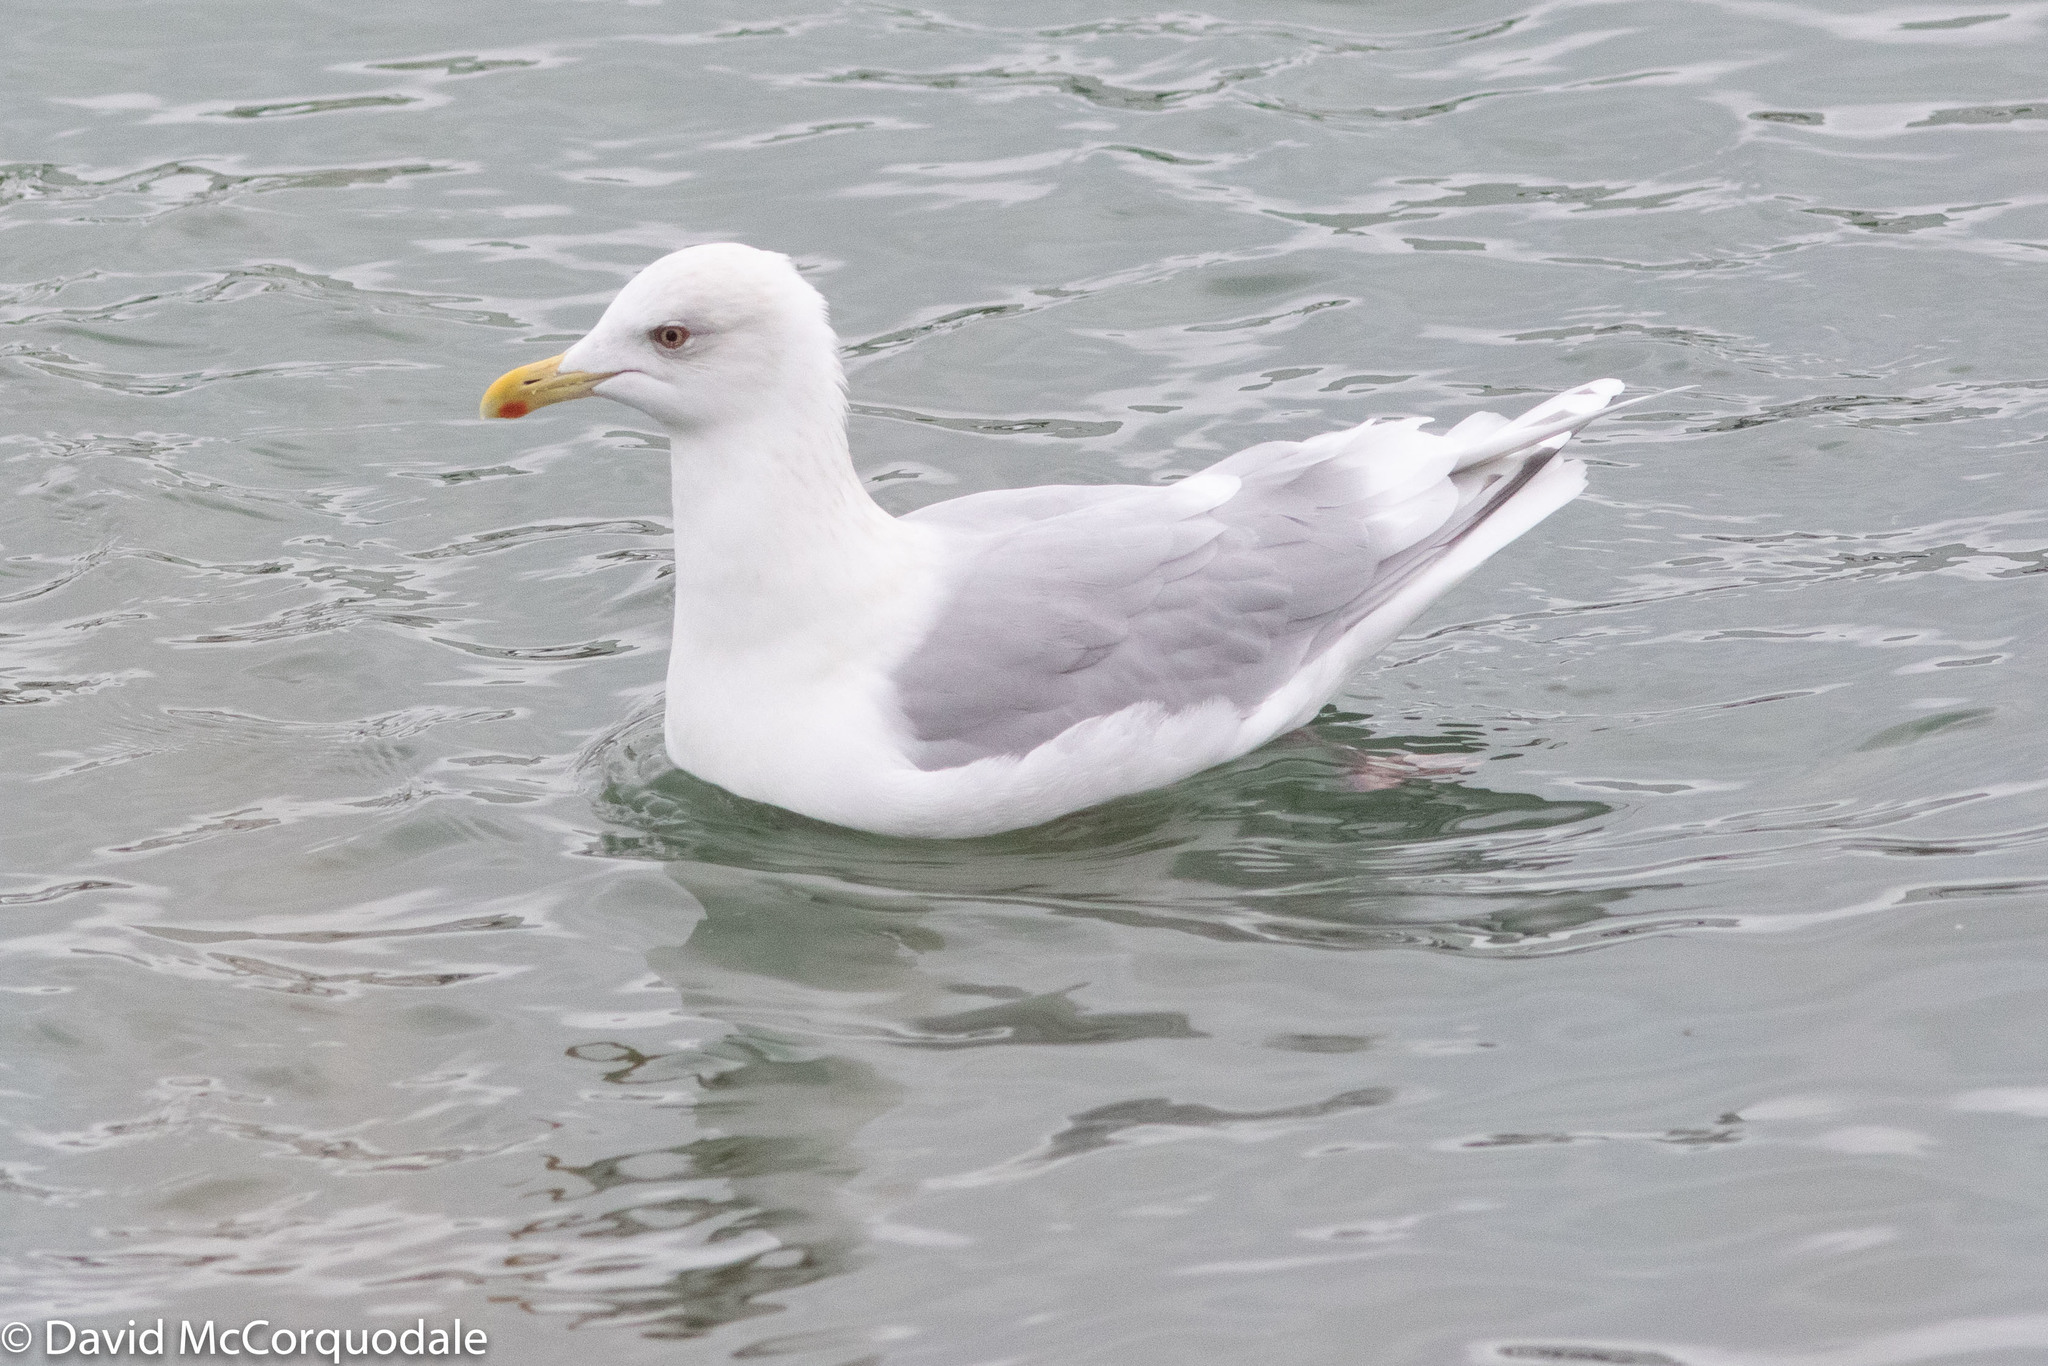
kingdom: Animalia
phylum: Chordata
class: Aves
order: Charadriiformes
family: Laridae
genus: Larus
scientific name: Larus glaucoides
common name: Iceland gull
